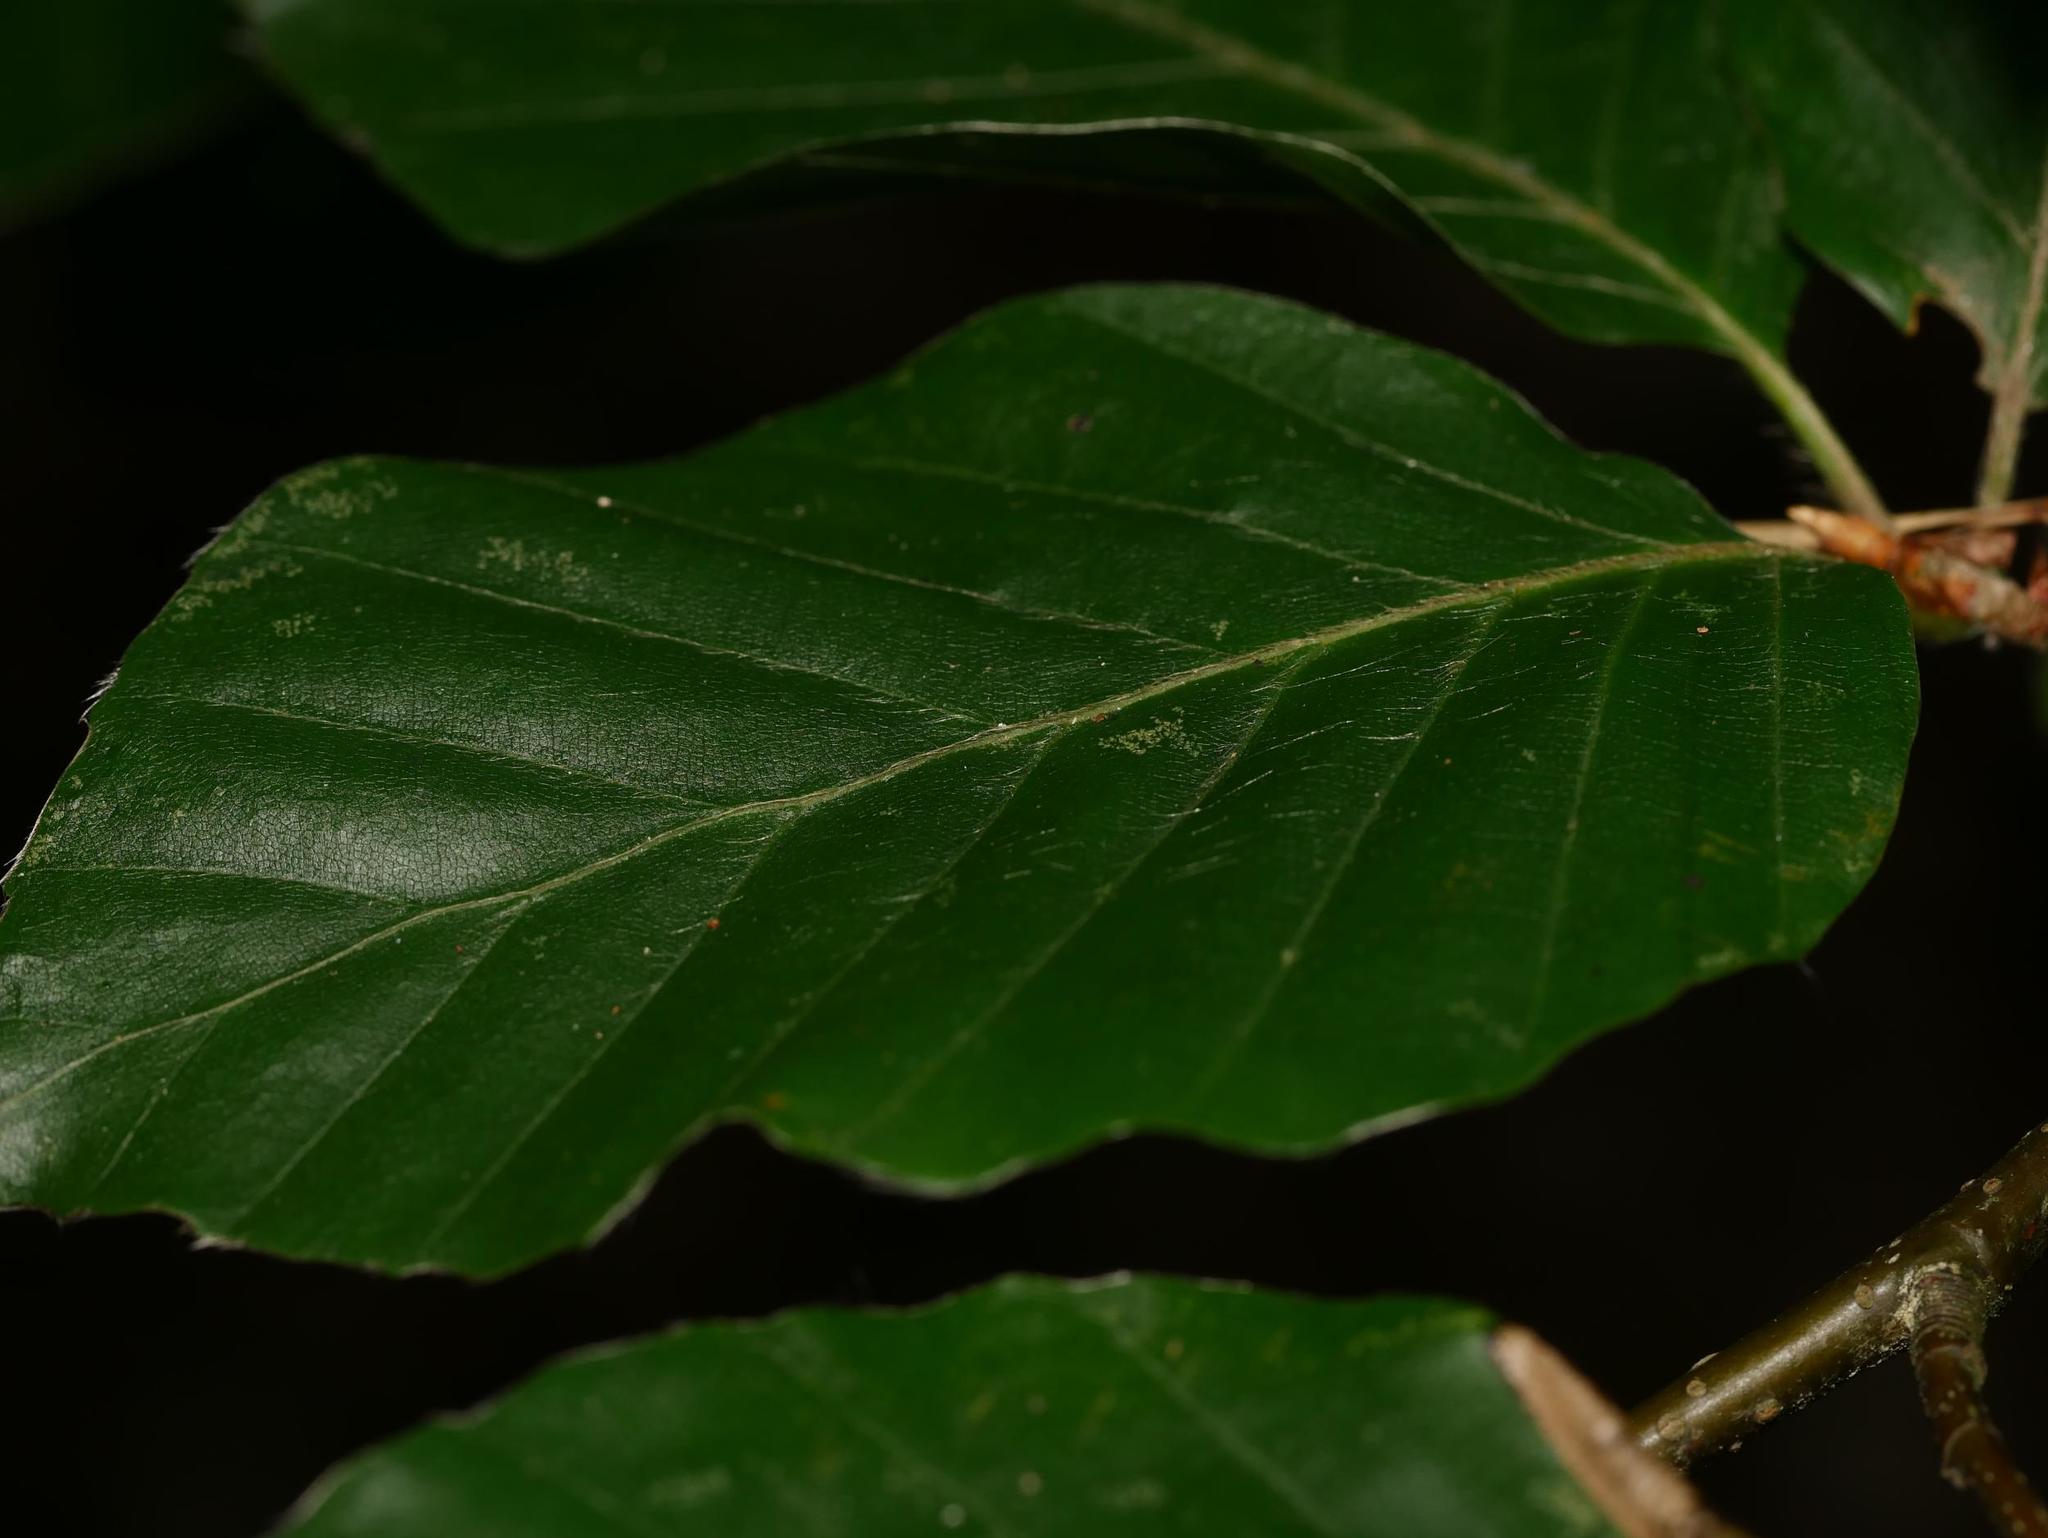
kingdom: Plantae
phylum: Tracheophyta
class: Magnoliopsida
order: Fagales
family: Fagaceae
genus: Fagus
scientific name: Fagus sylvatica
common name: Beech
